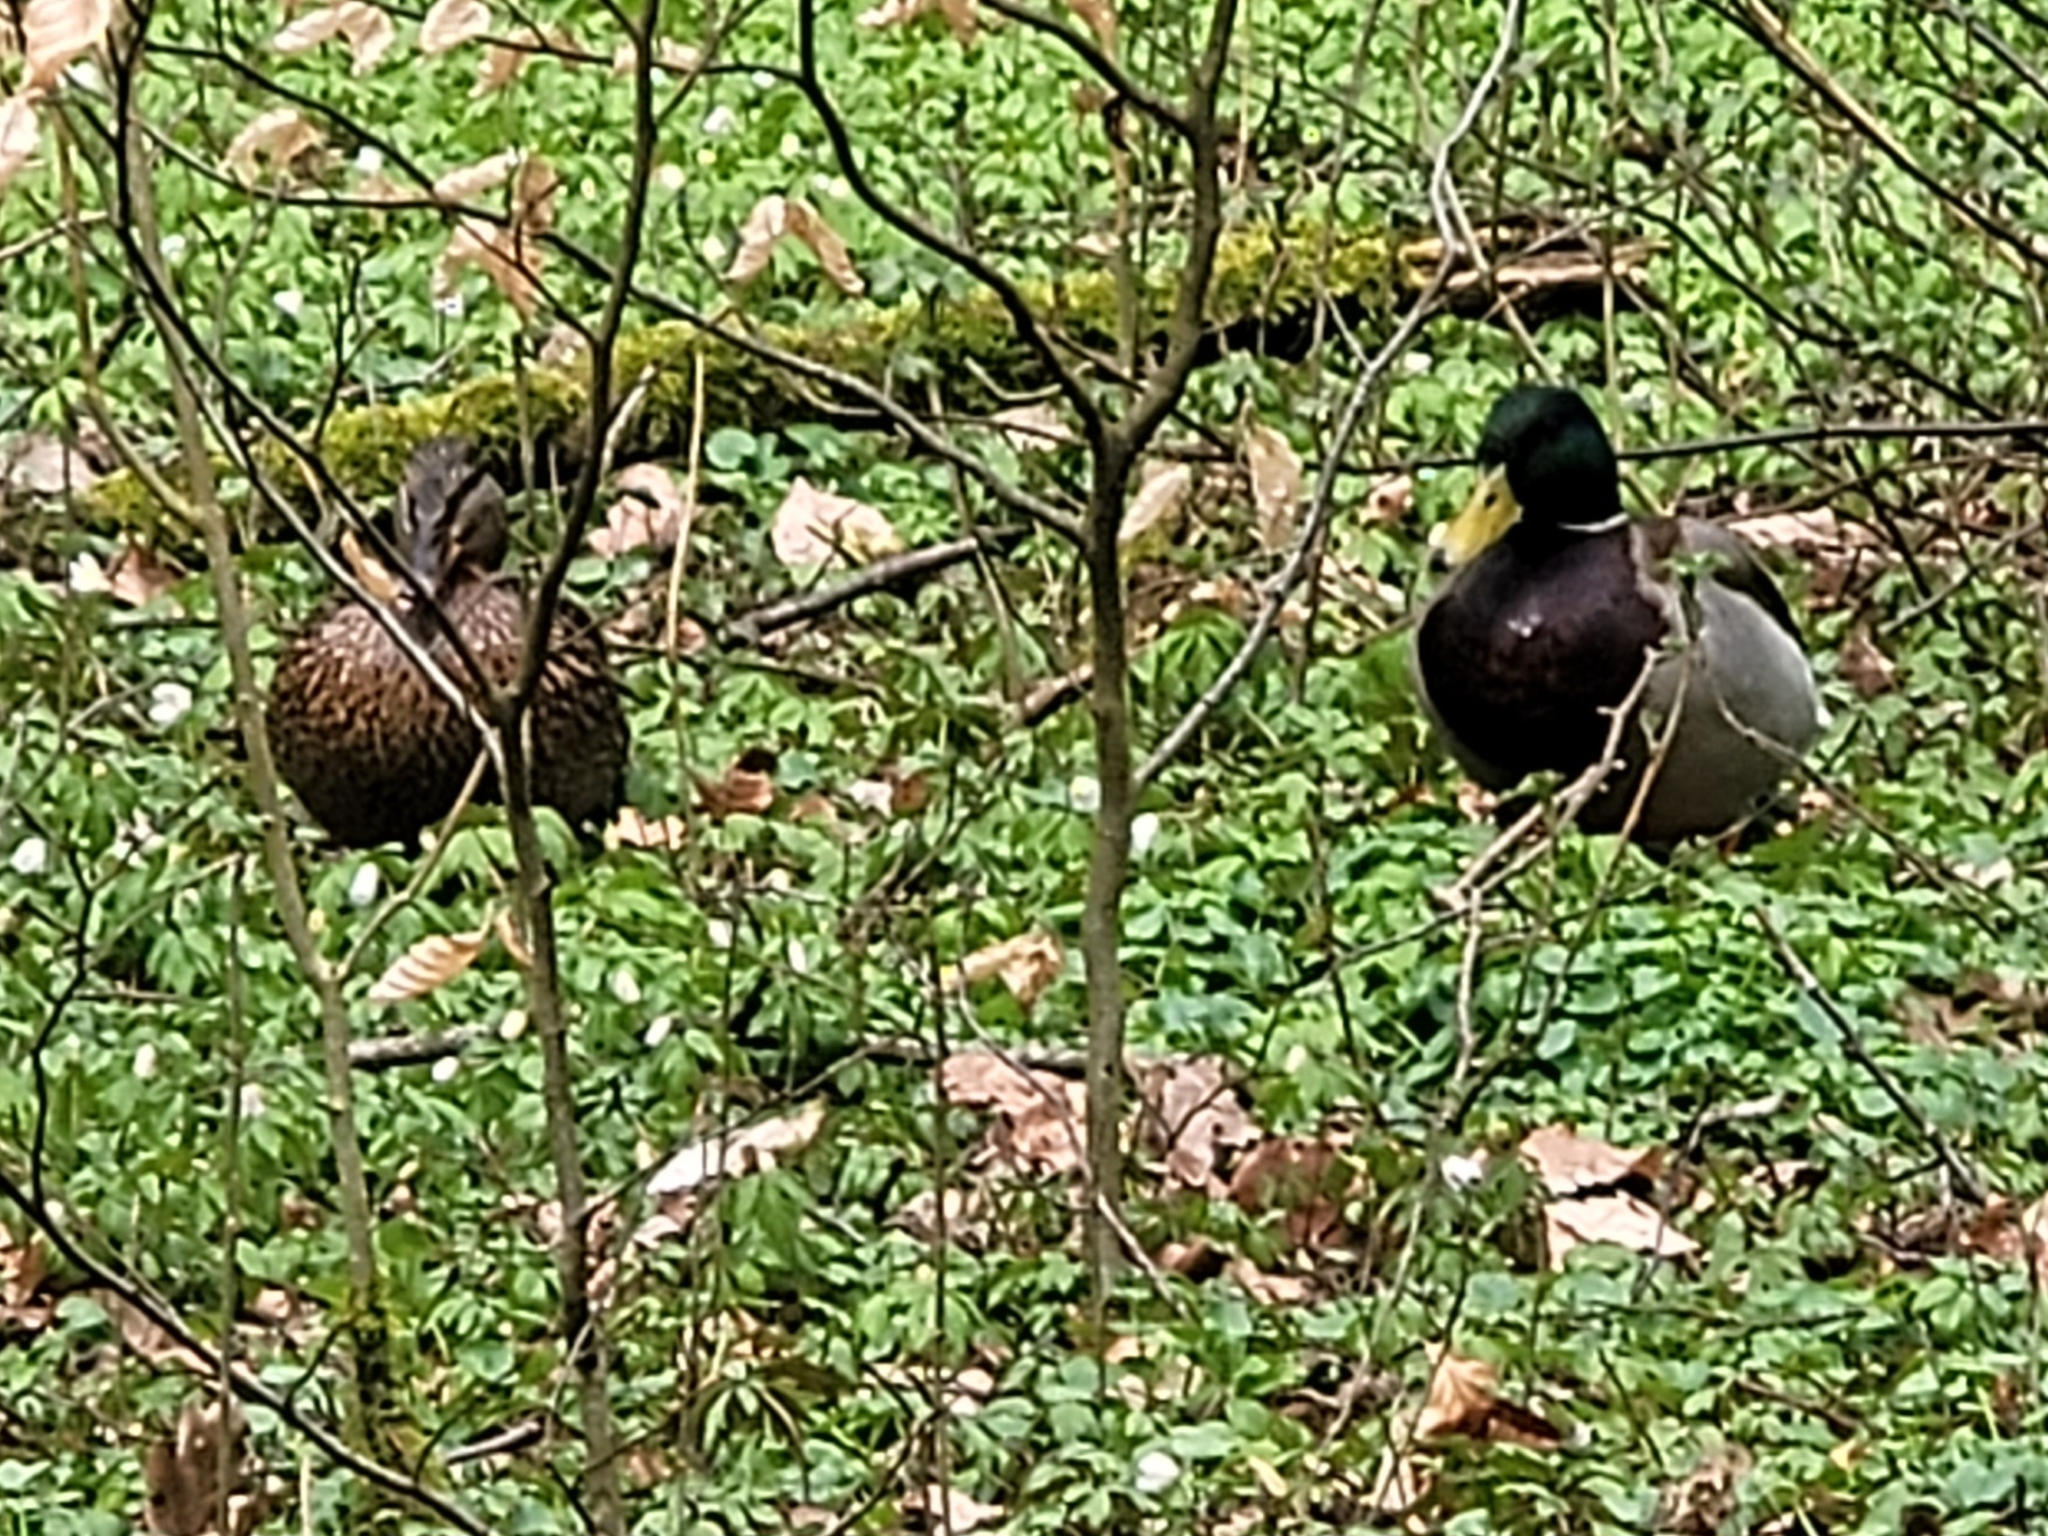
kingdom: Animalia
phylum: Chordata
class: Aves
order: Anseriformes
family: Anatidae
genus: Anas
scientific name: Anas platyrhynchos
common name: Mallard
